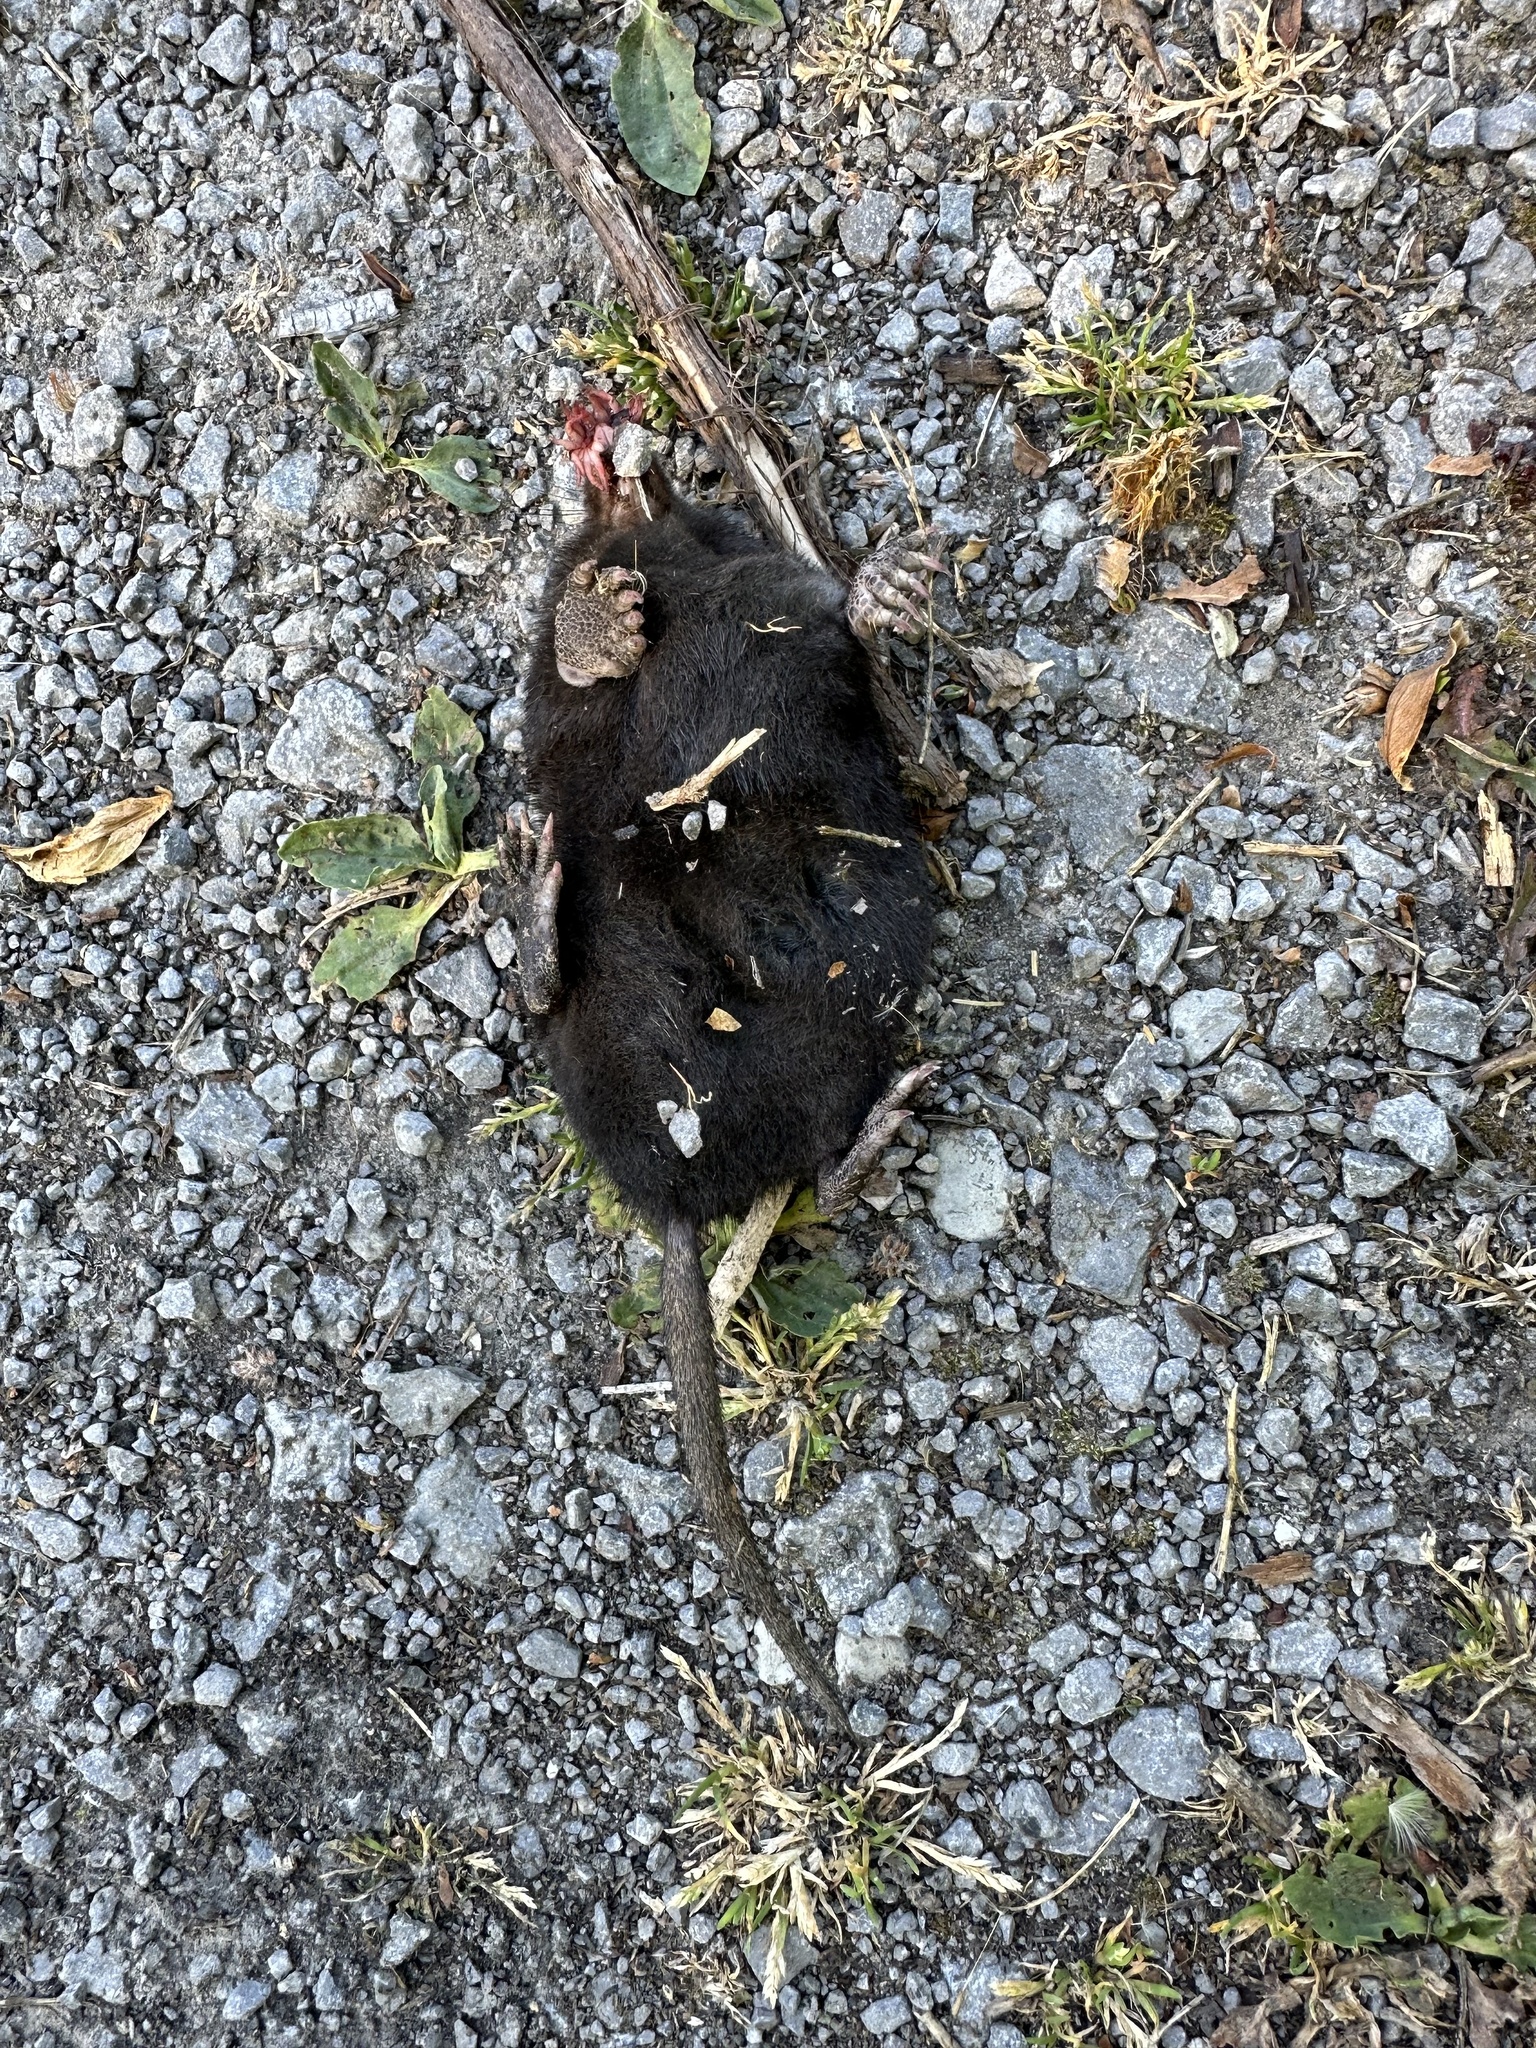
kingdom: Animalia
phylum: Chordata
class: Mammalia
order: Soricomorpha
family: Talpidae
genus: Condylura
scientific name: Condylura cristata
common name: Star-nosed mole
